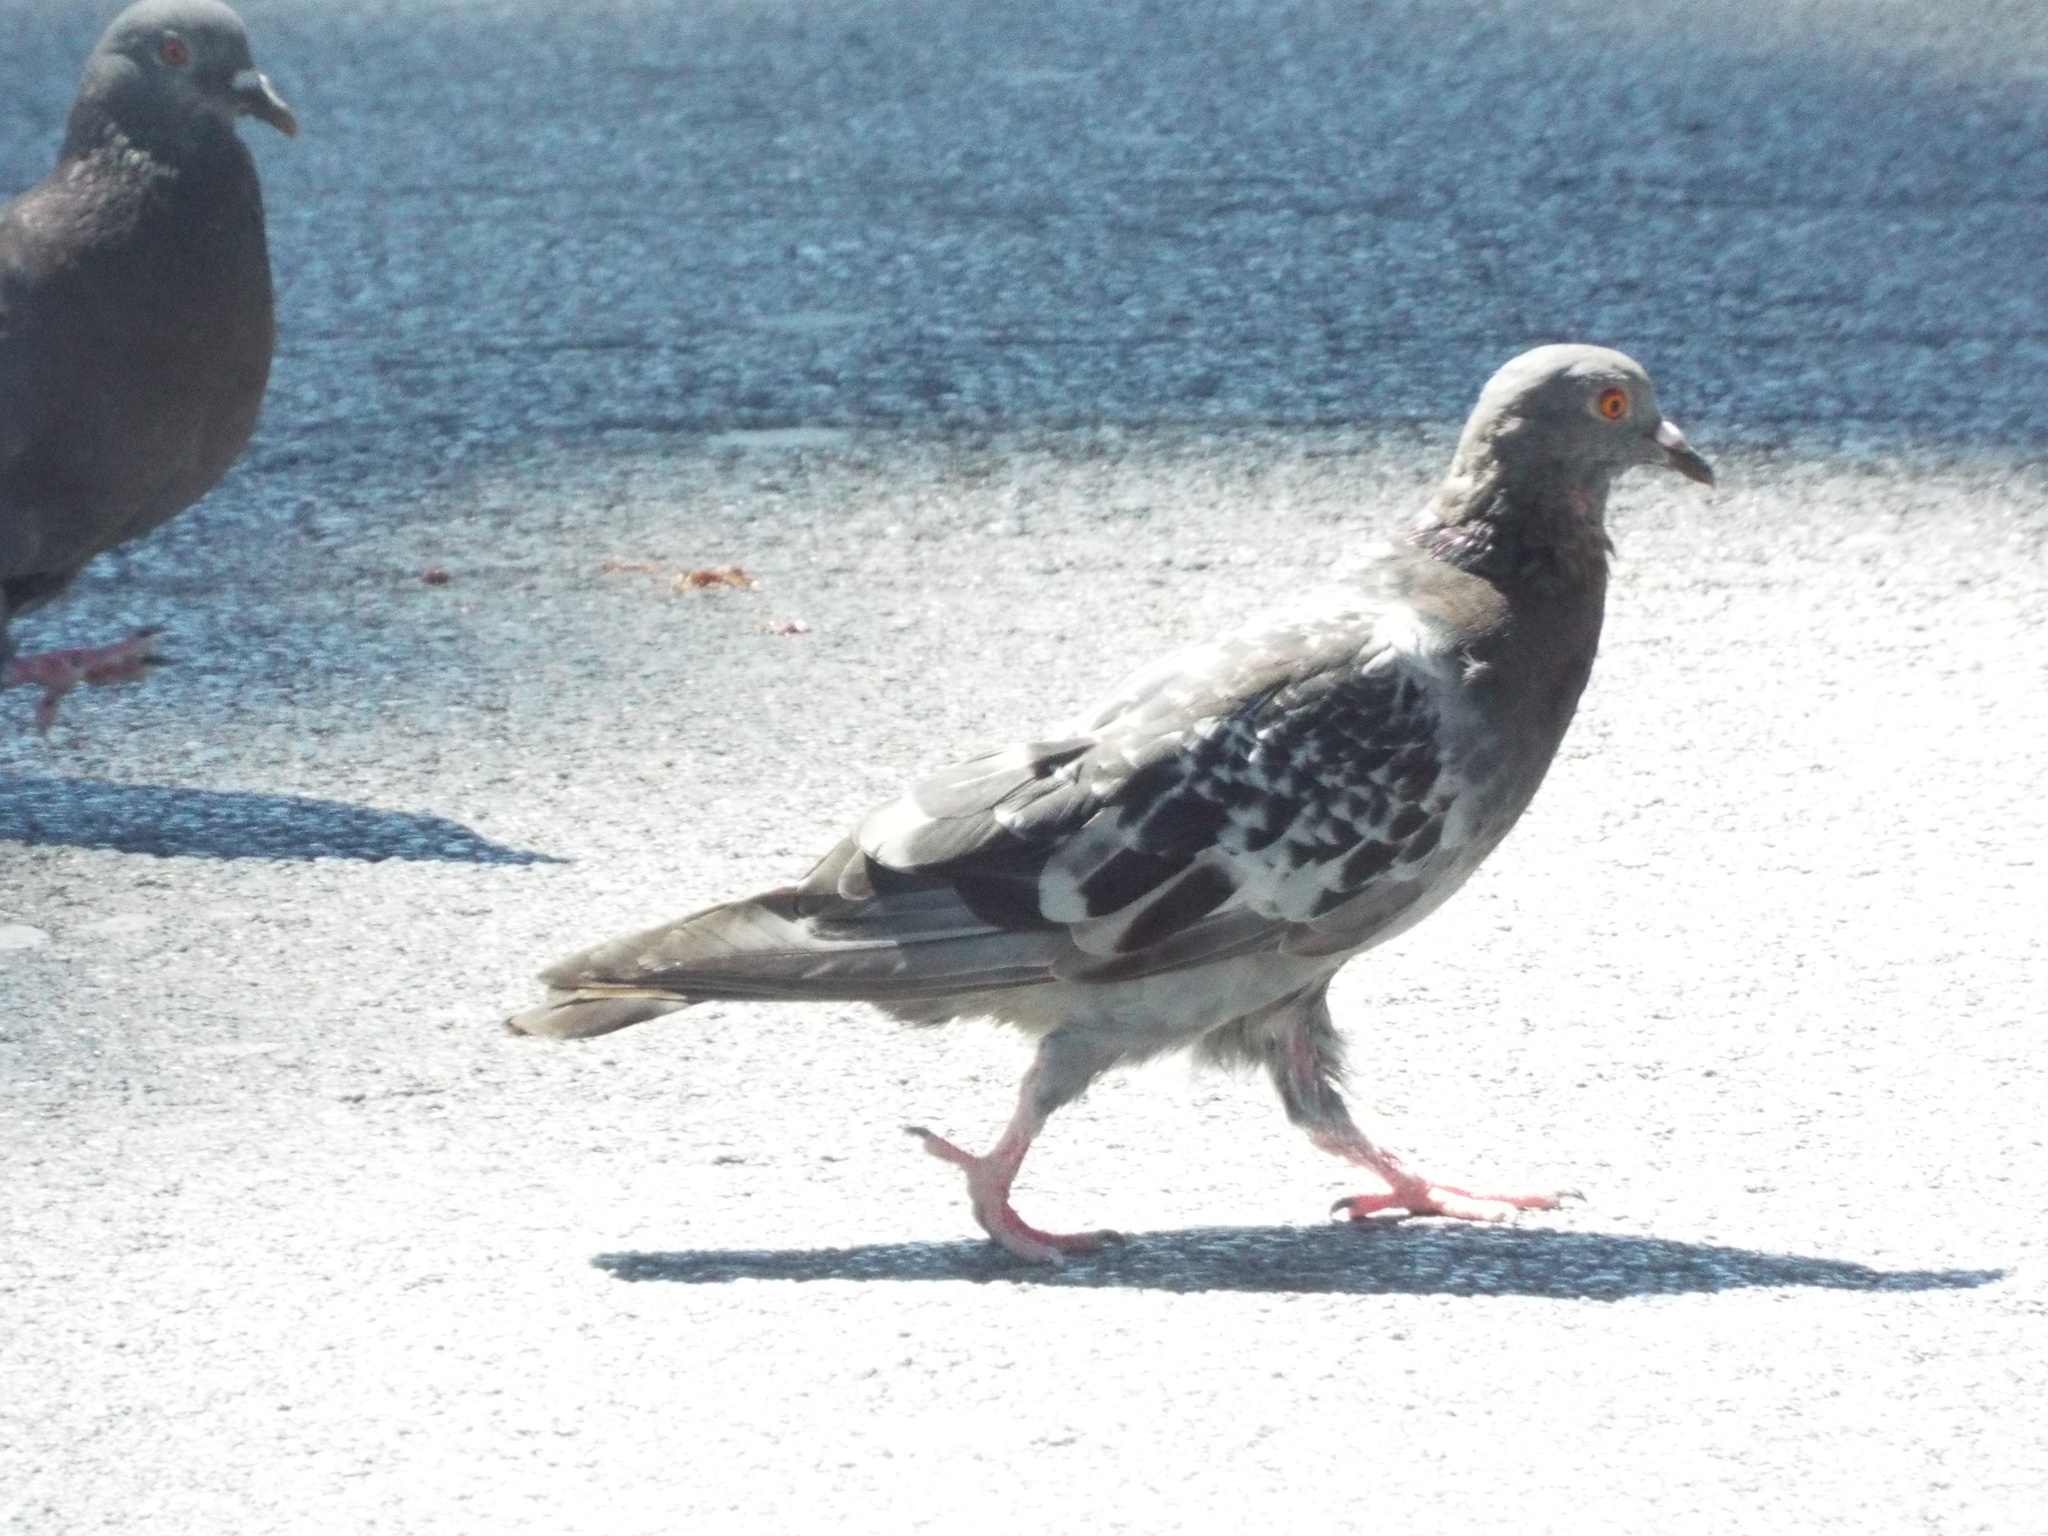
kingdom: Animalia
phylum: Chordata
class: Aves
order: Columbiformes
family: Columbidae
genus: Columba
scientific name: Columba livia
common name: Rock pigeon
